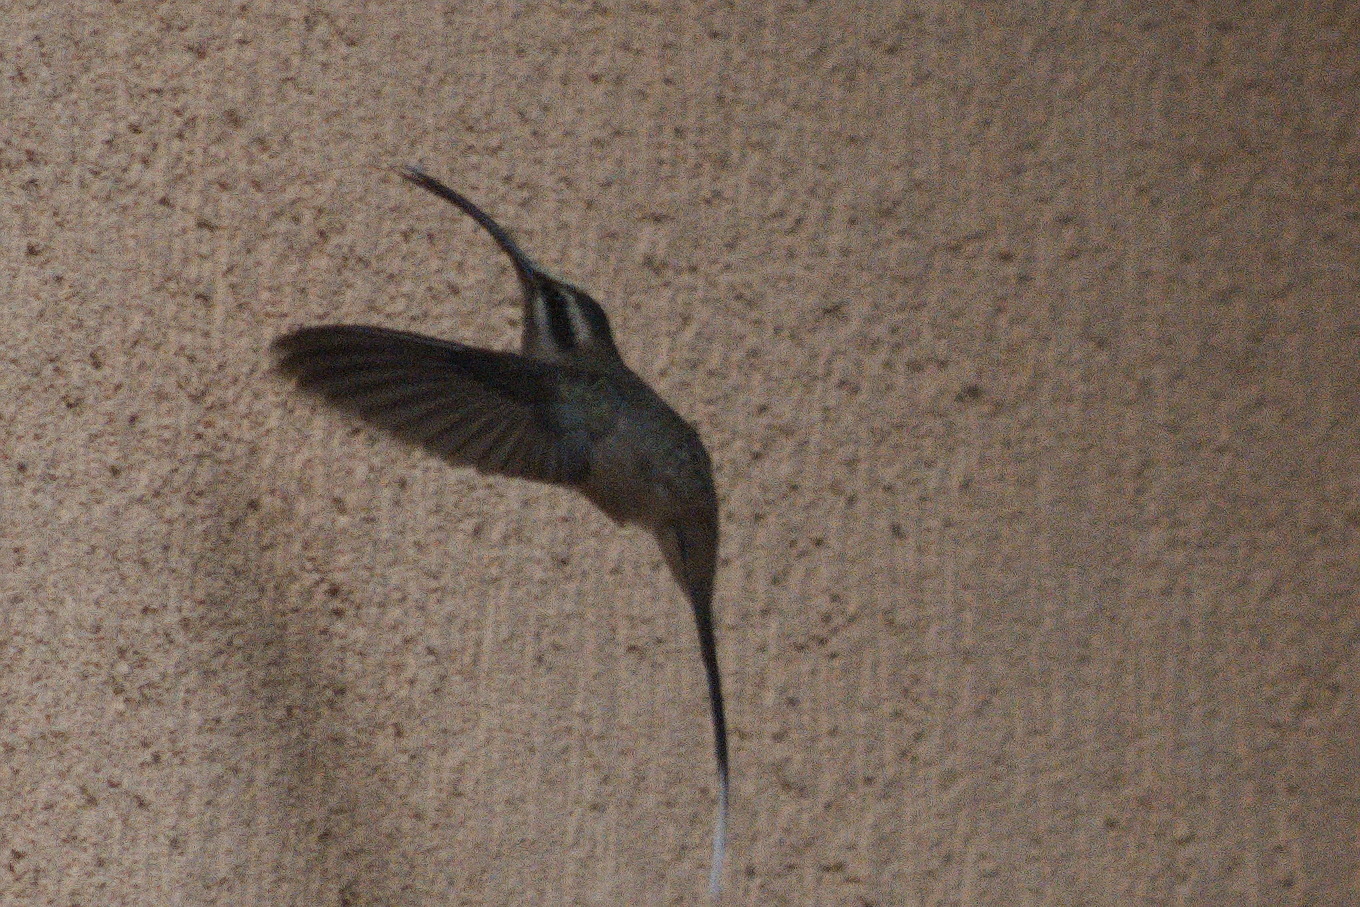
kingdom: Animalia
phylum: Chordata
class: Aves
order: Apodiformes
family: Trochilidae
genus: Phaethornis
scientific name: Phaethornis pretrei
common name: Planalto hermit
